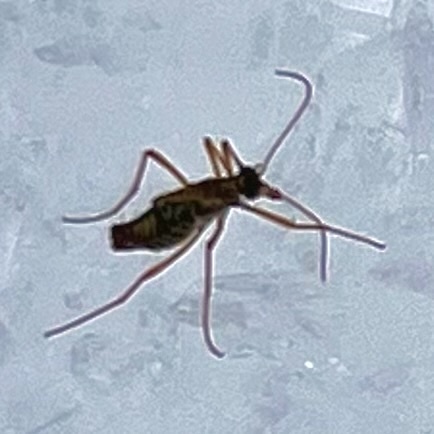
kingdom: Animalia
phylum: Arthropoda
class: Insecta
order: Mecoptera
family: Boreidae
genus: Boreus
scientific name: Boreus westwoodi
